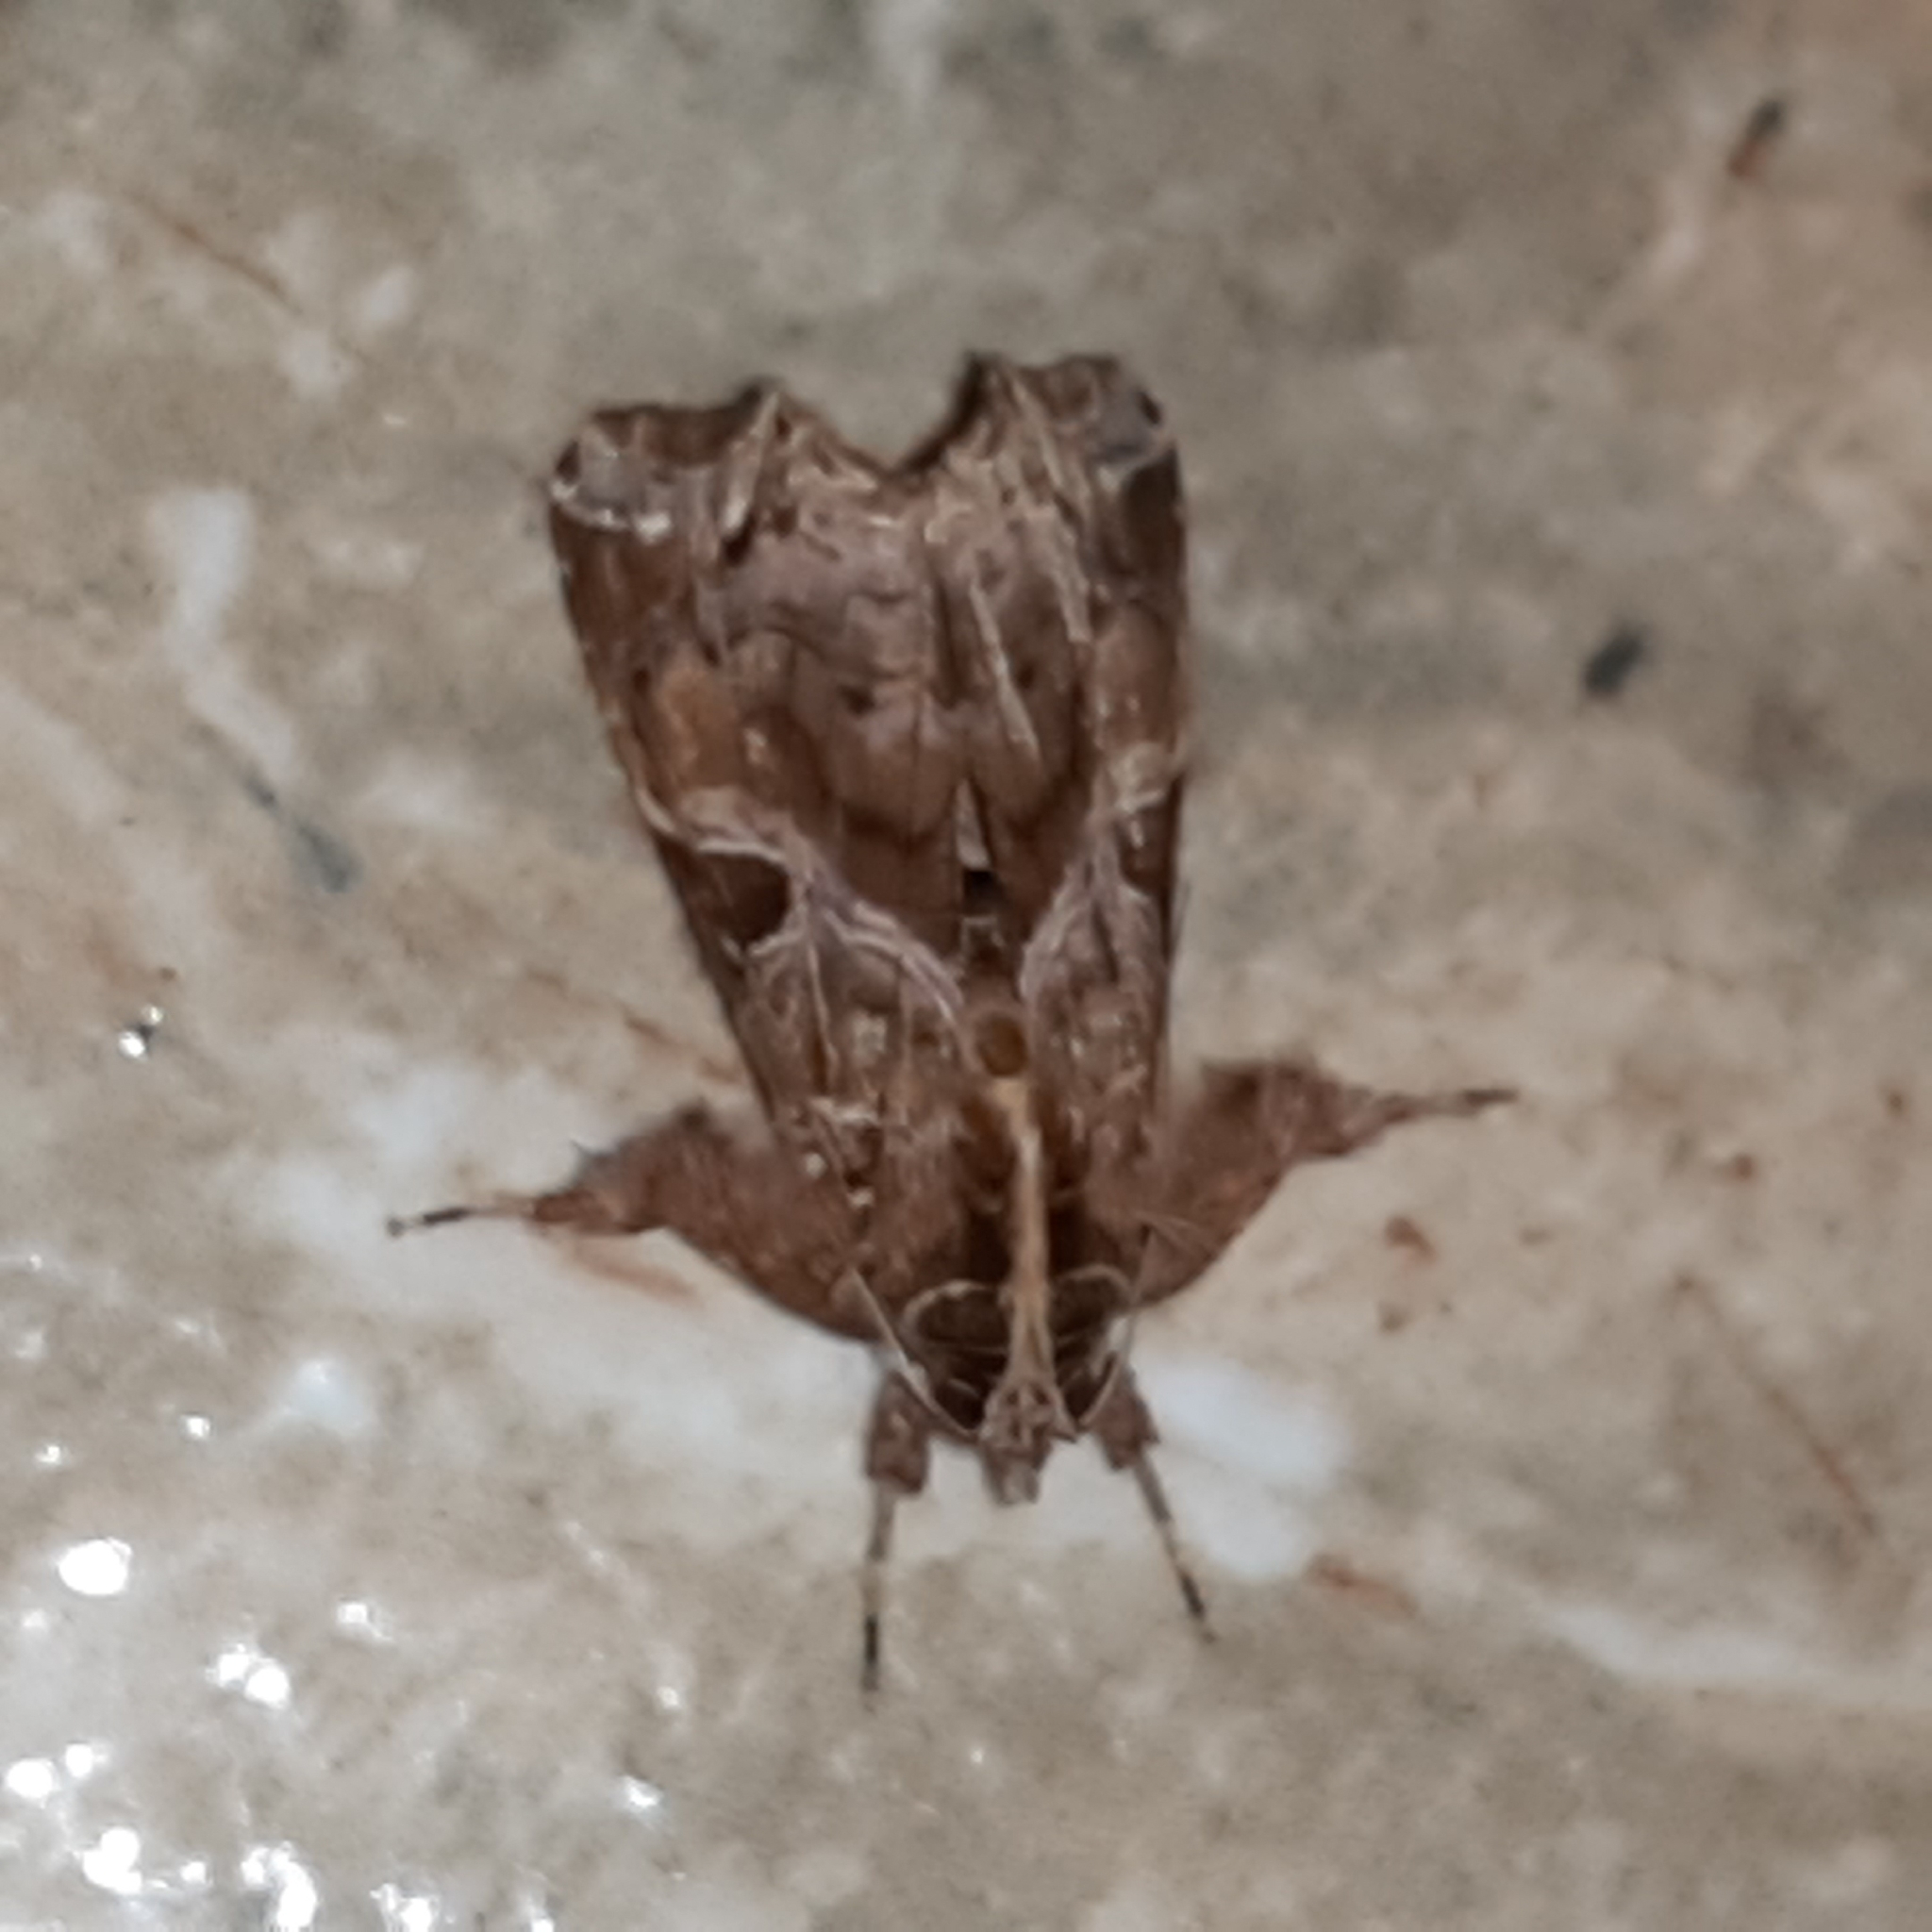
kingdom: Animalia
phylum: Arthropoda
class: Insecta
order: Lepidoptera
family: Noctuidae
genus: Callopistria
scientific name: Callopistria floridensis
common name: Florida fern moth
